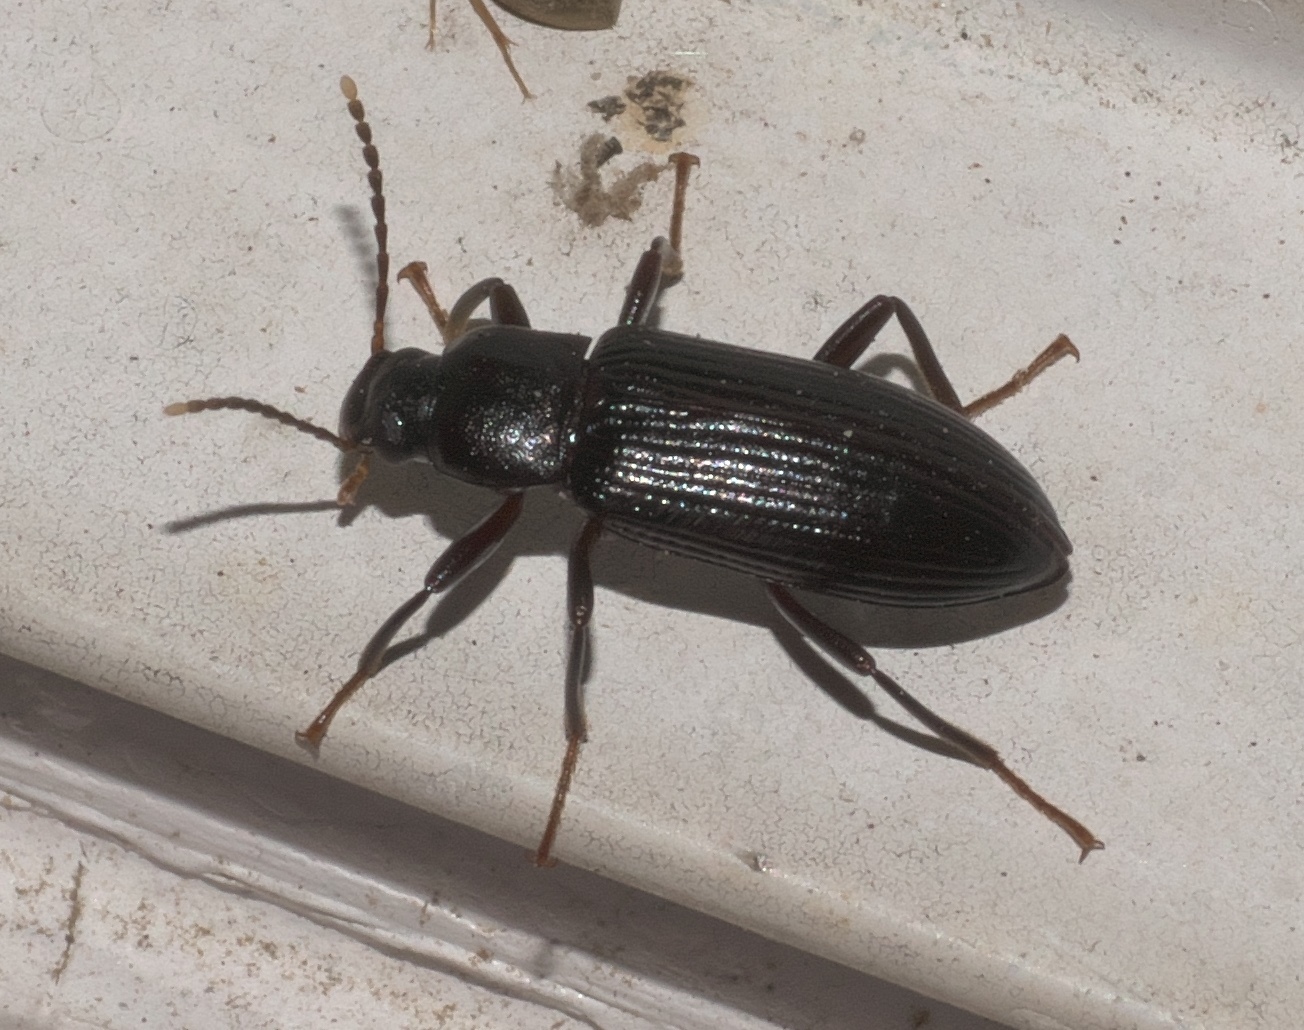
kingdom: Animalia
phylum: Arthropoda
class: Insecta
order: Coleoptera
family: Tenebrionidae
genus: Strongylium
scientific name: Strongylium terminatum
